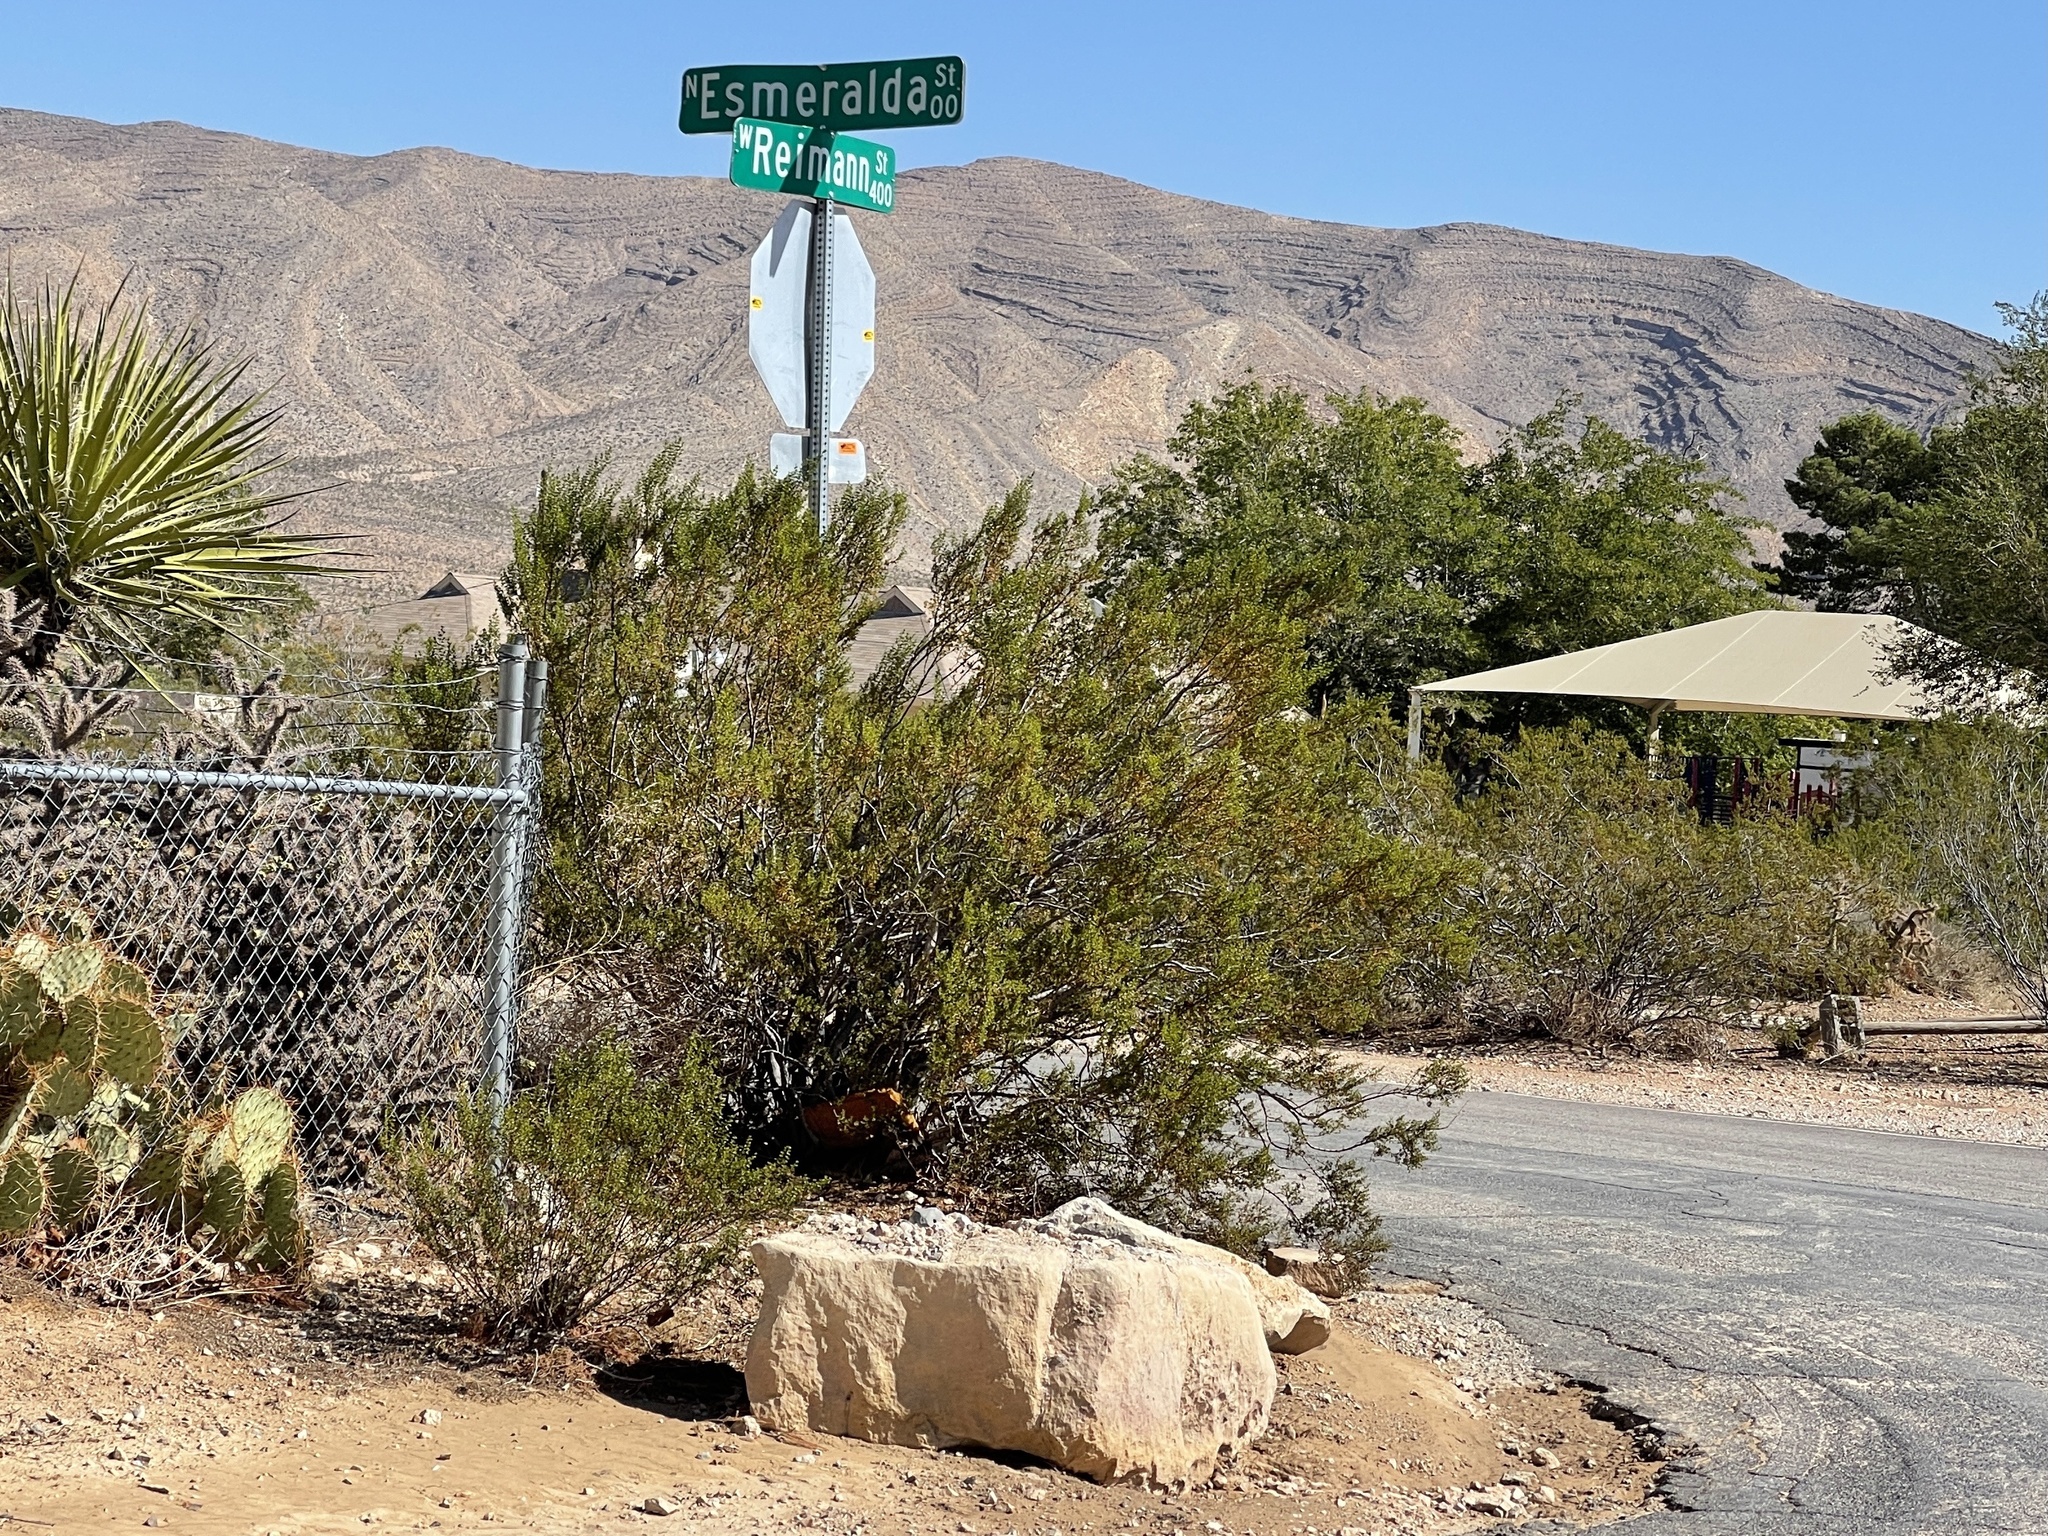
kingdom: Plantae
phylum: Tracheophyta
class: Magnoliopsida
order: Zygophyllales
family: Zygophyllaceae
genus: Larrea
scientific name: Larrea tridentata
